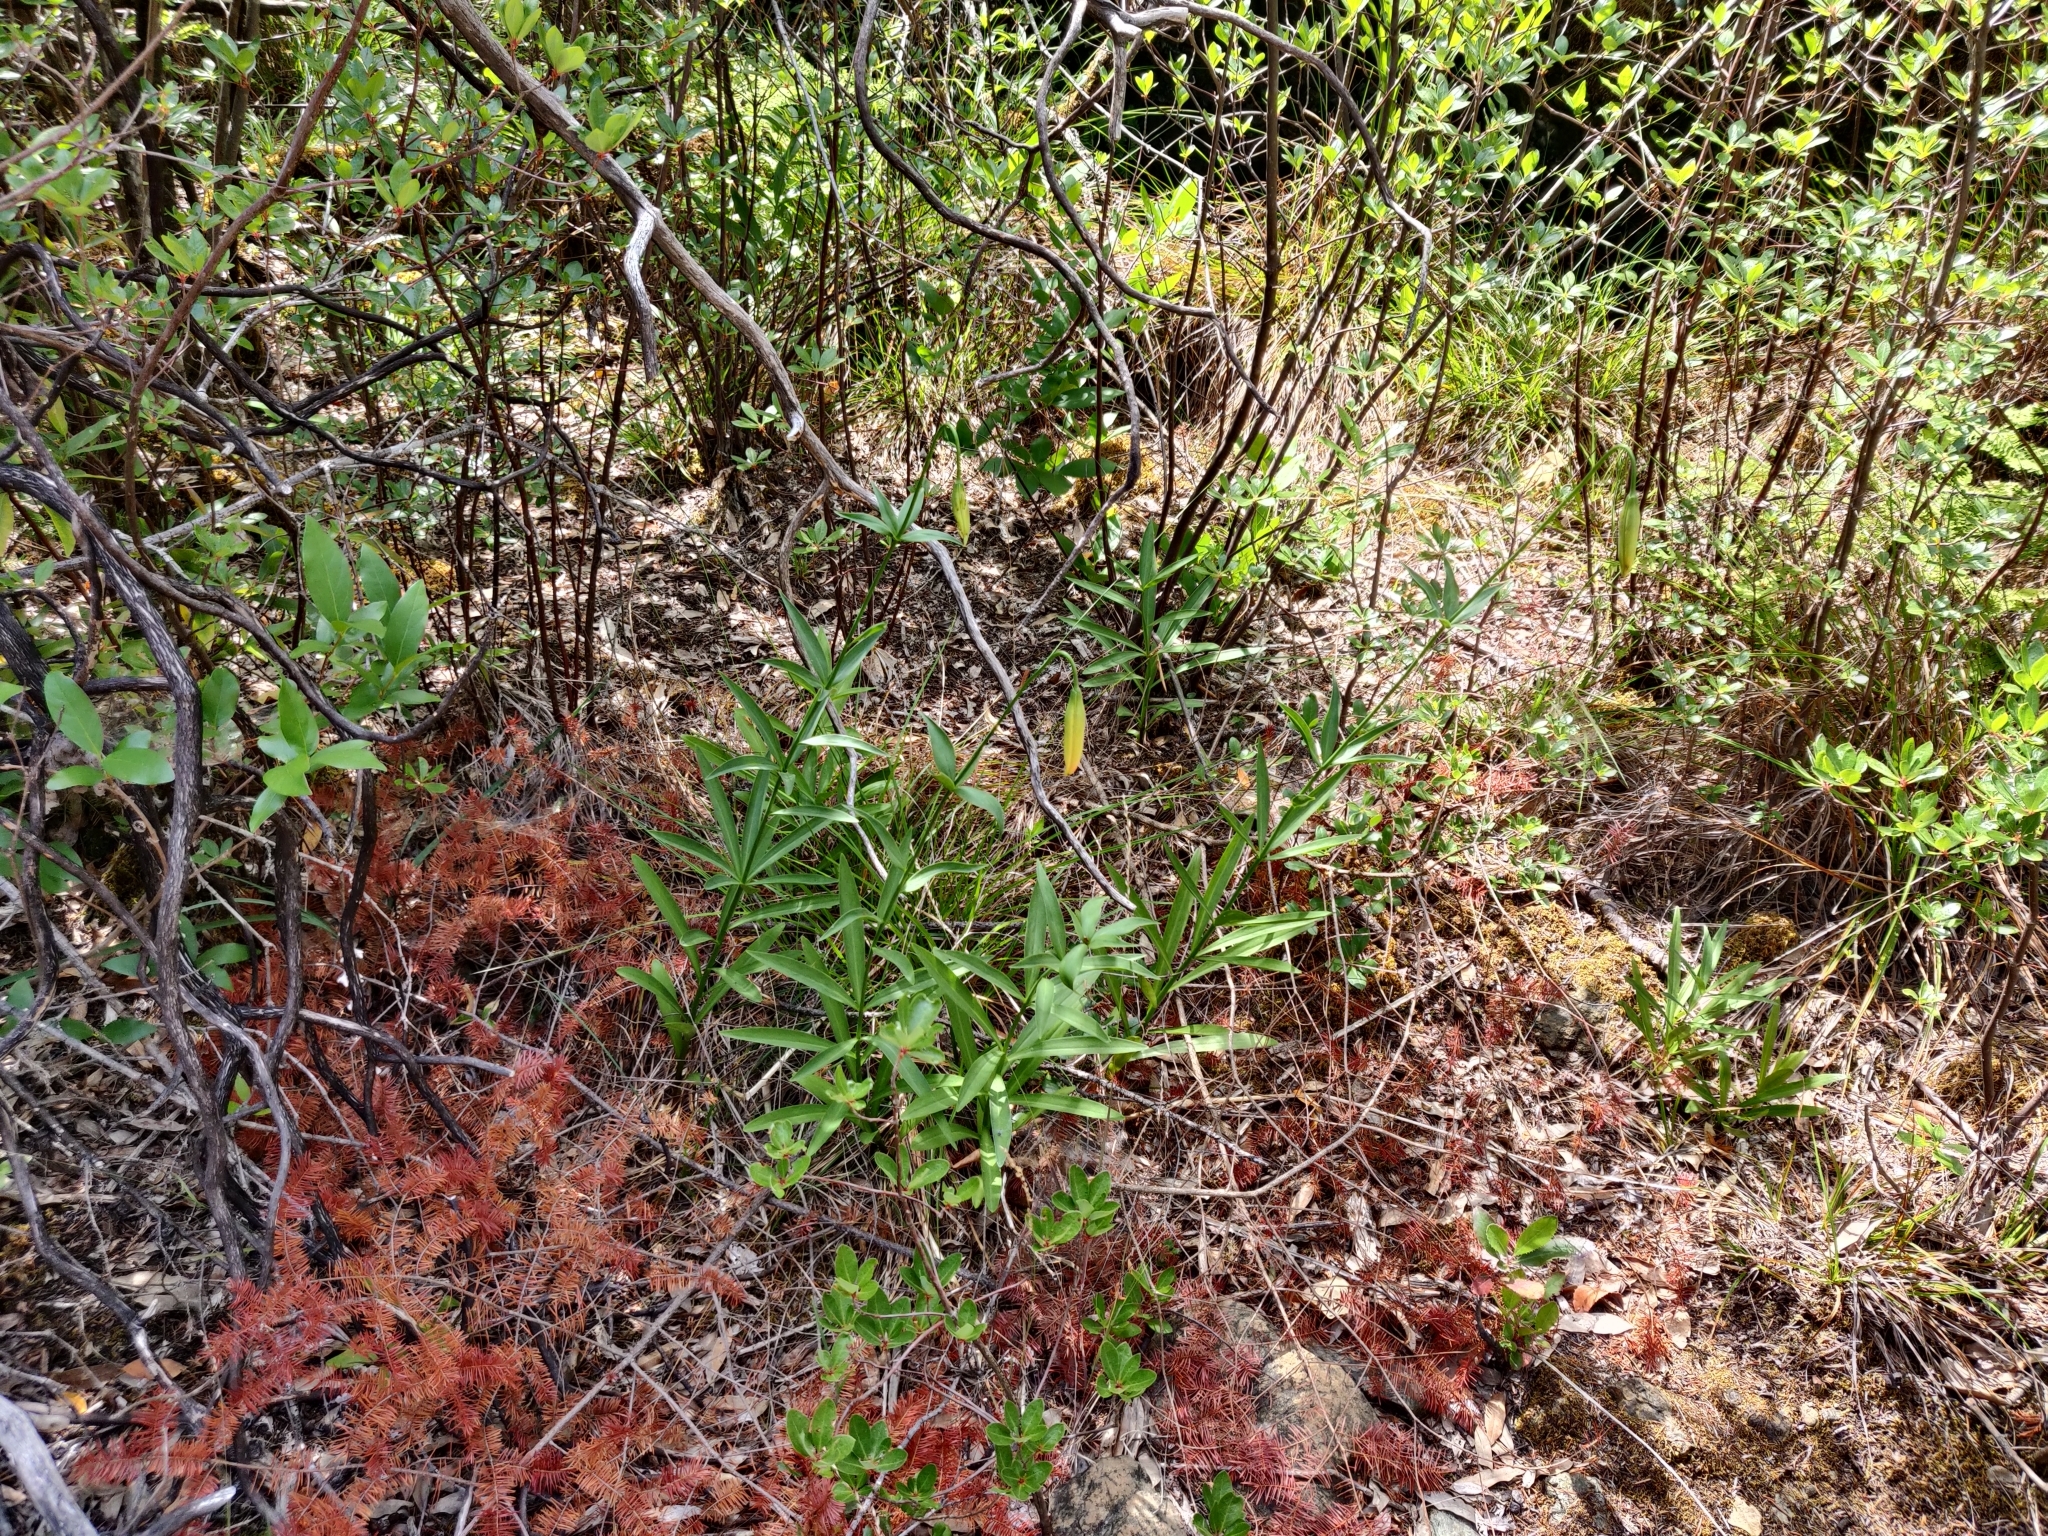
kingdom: Plantae
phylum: Tracheophyta
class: Liliopsida
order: Liliales
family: Liliaceae
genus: Lilium
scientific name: Lilium pardalinum
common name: Panther lily
